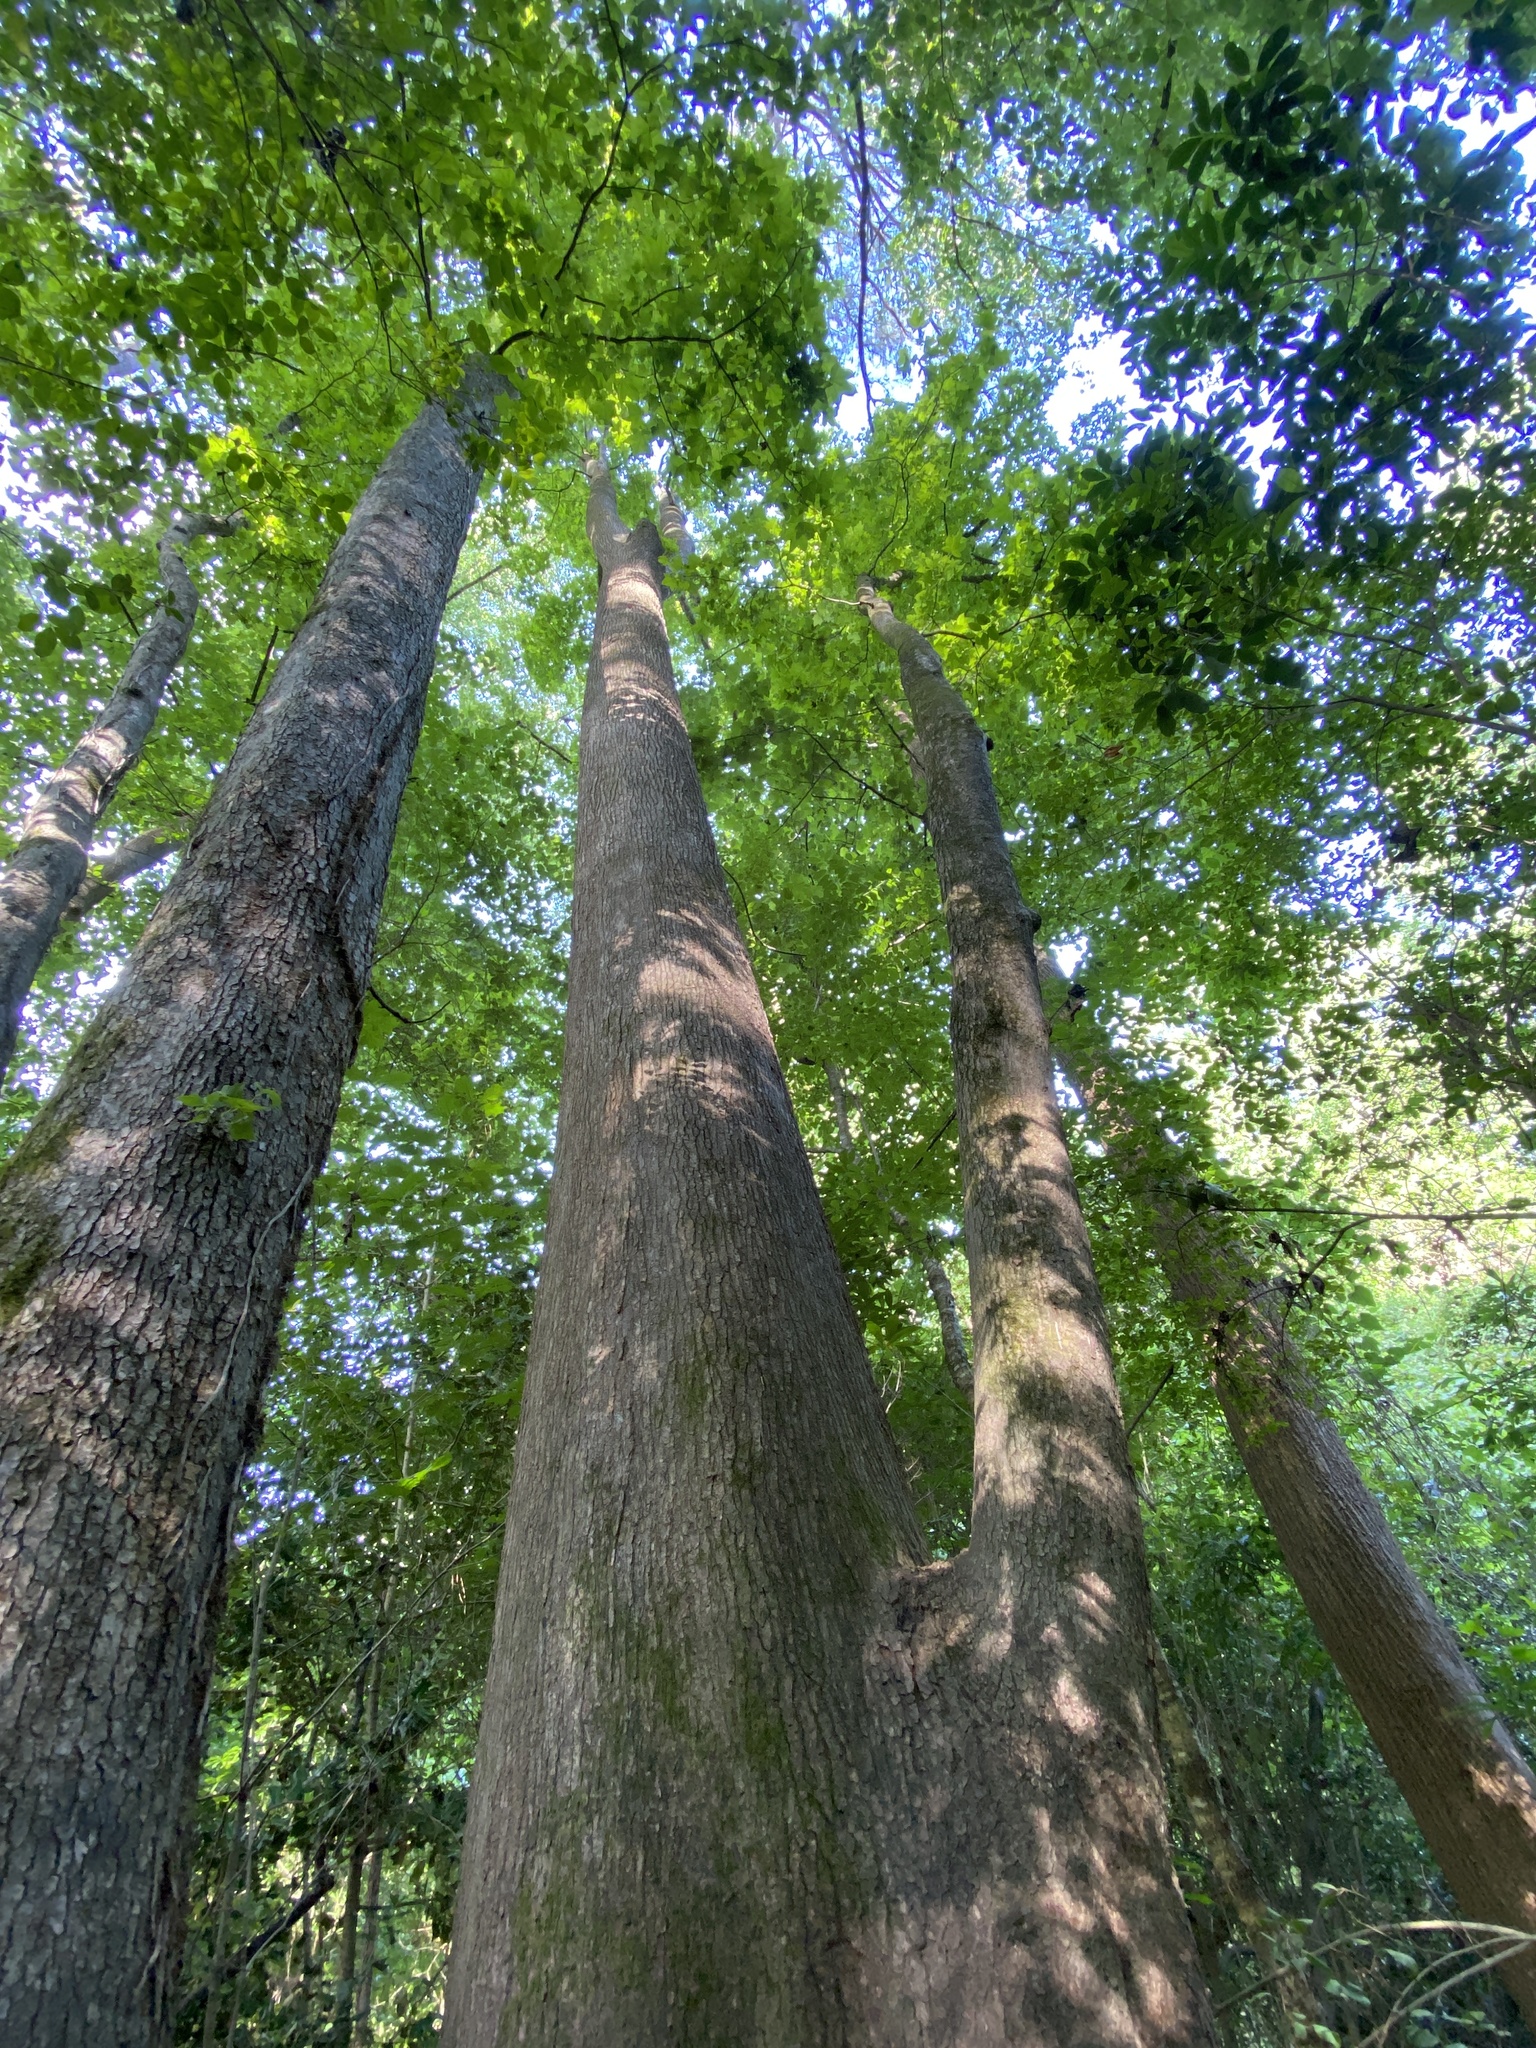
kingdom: Plantae
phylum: Tracheophyta
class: Magnoliopsida
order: Saxifragales
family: Altingiaceae
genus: Liquidambar
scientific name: Liquidambar styraciflua
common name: Sweet gum
